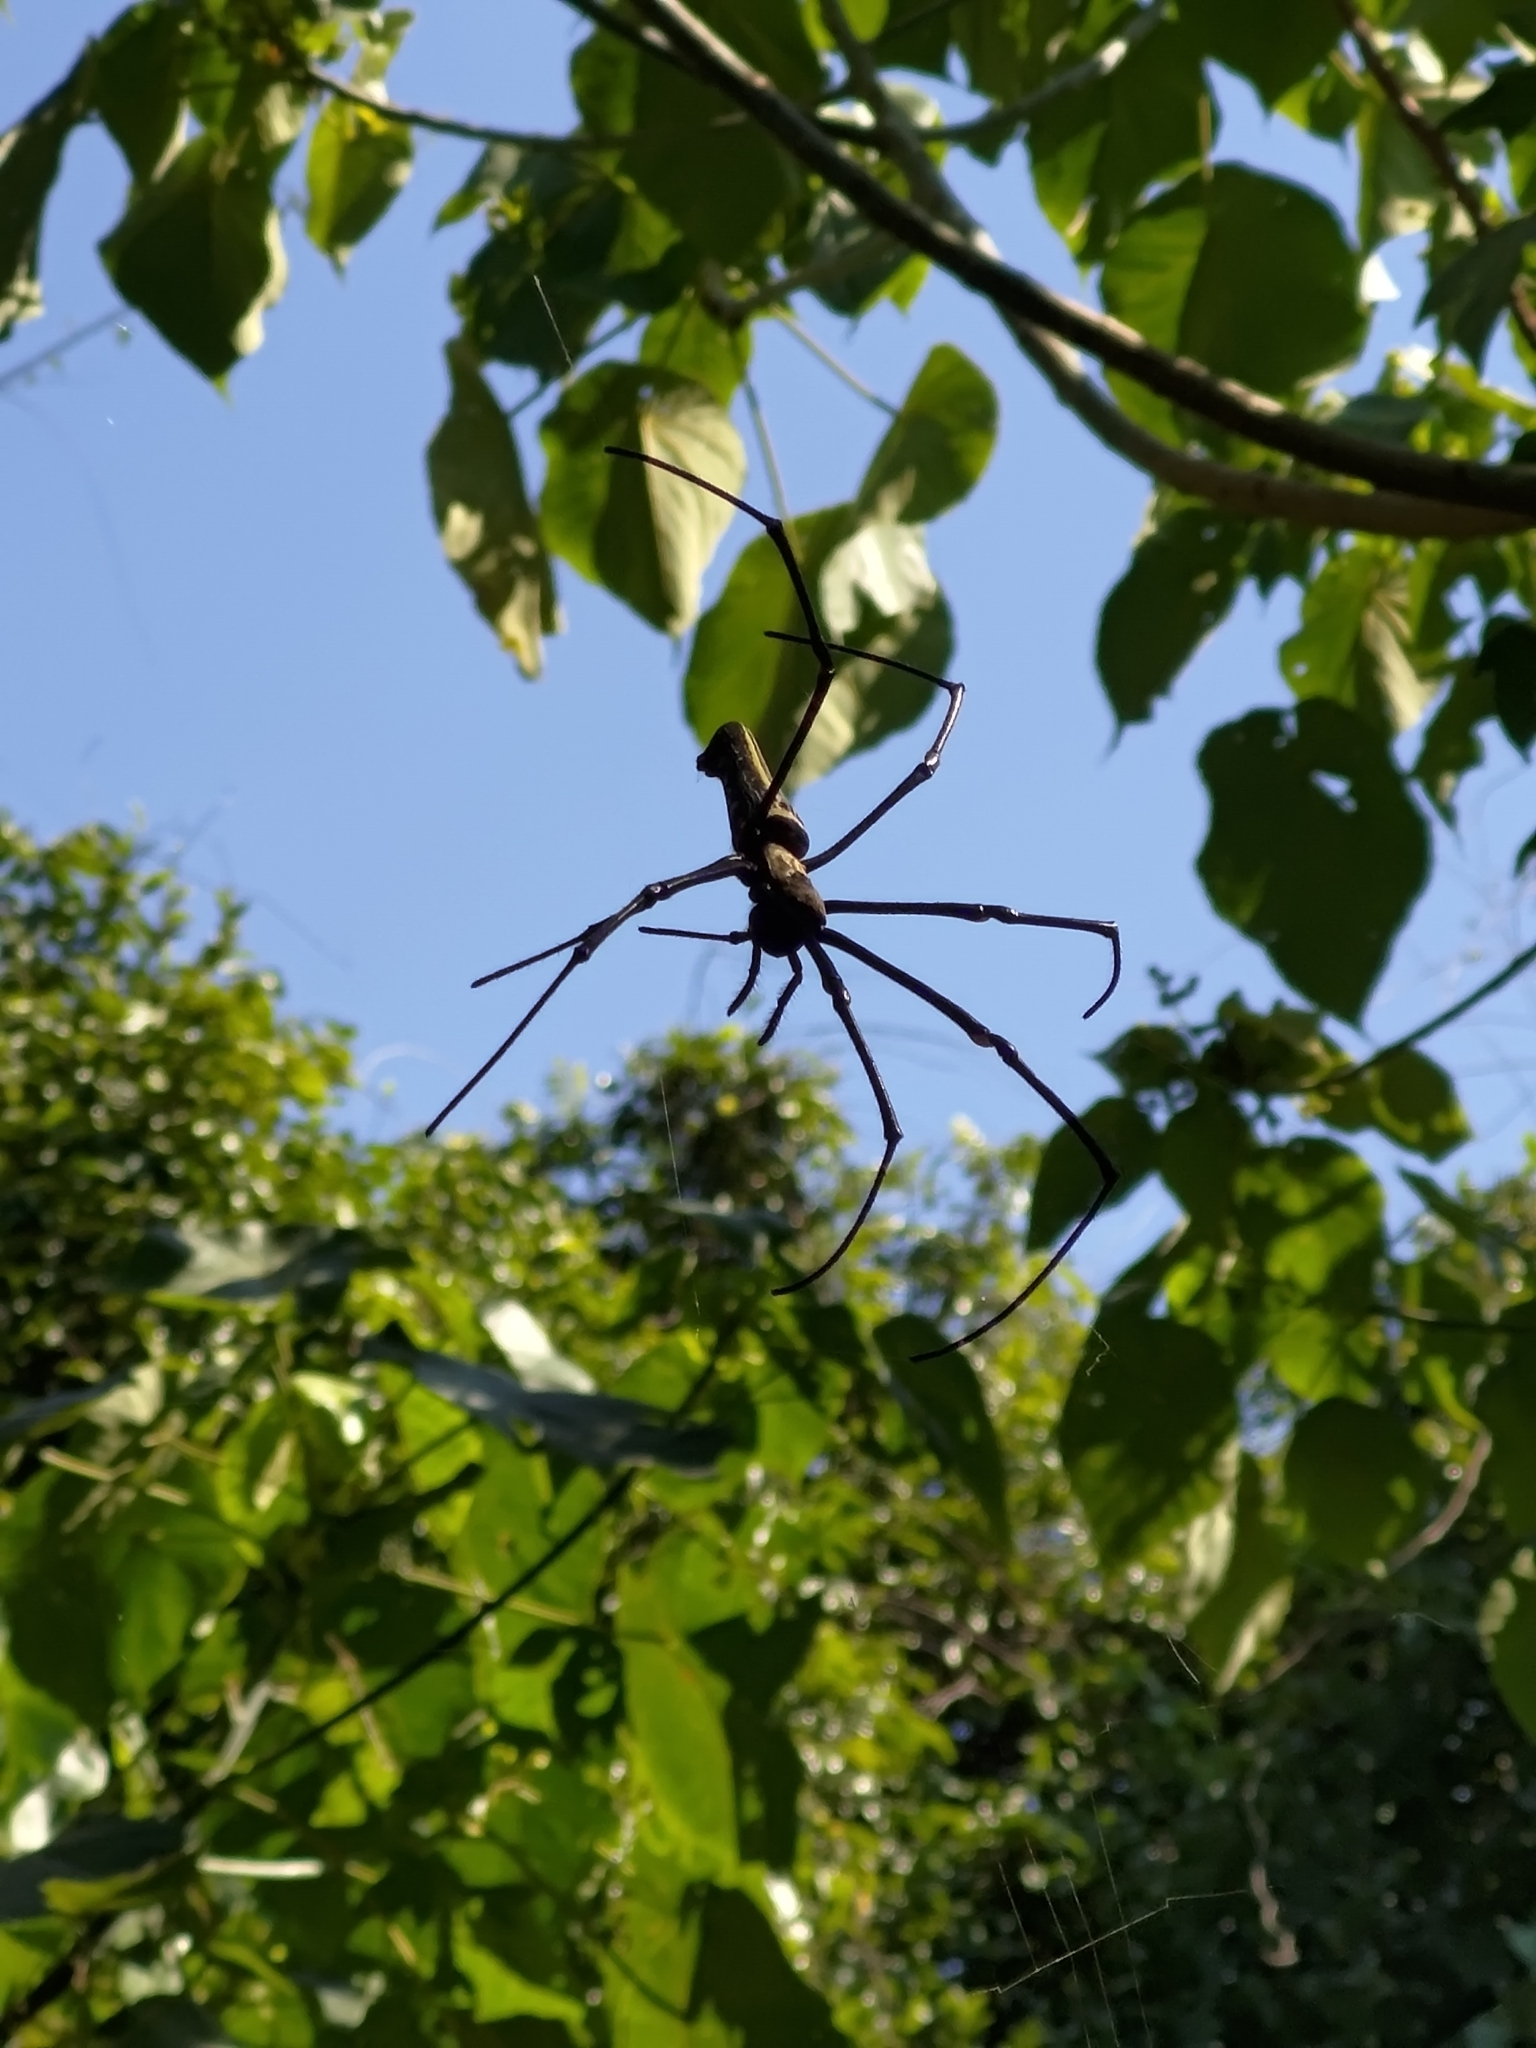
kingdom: Animalia
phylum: Arthropoda
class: Arachnida
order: Araneae
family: Araneidae
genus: Nephila
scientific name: Nephila pilipes
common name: Giant golden orb weaver
